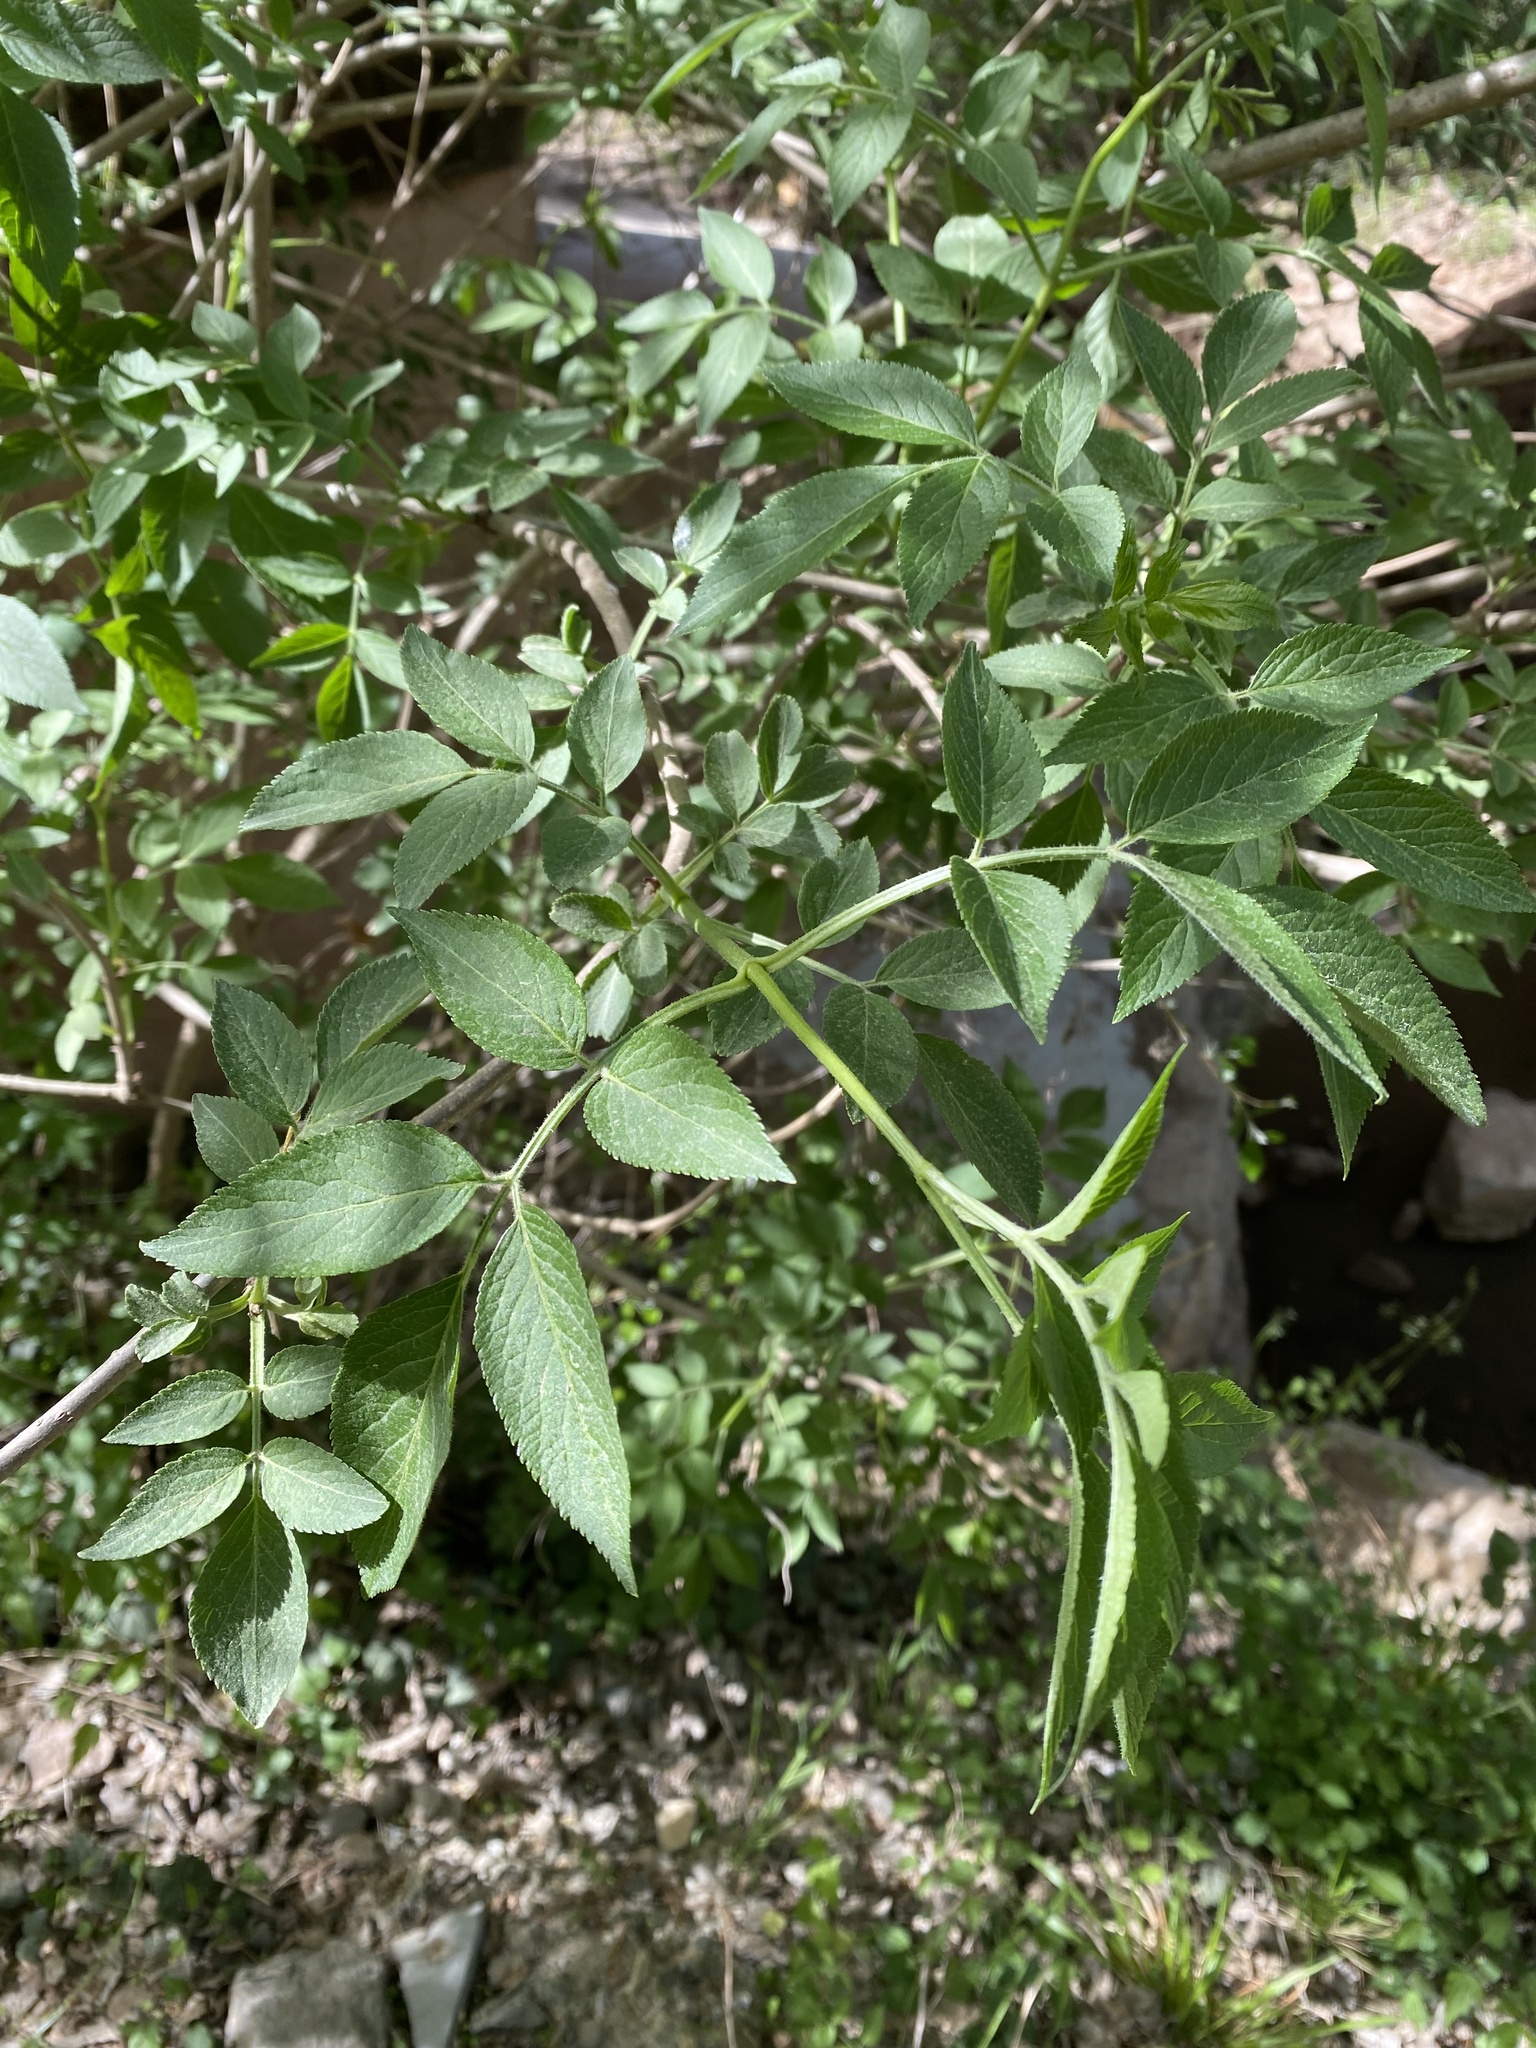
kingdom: Plantae
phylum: Tracheophyta
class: Magnoliopsida
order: Dipsacales
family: Viburnaceae
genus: Sambucus
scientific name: Sambucus nigra
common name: Elder
